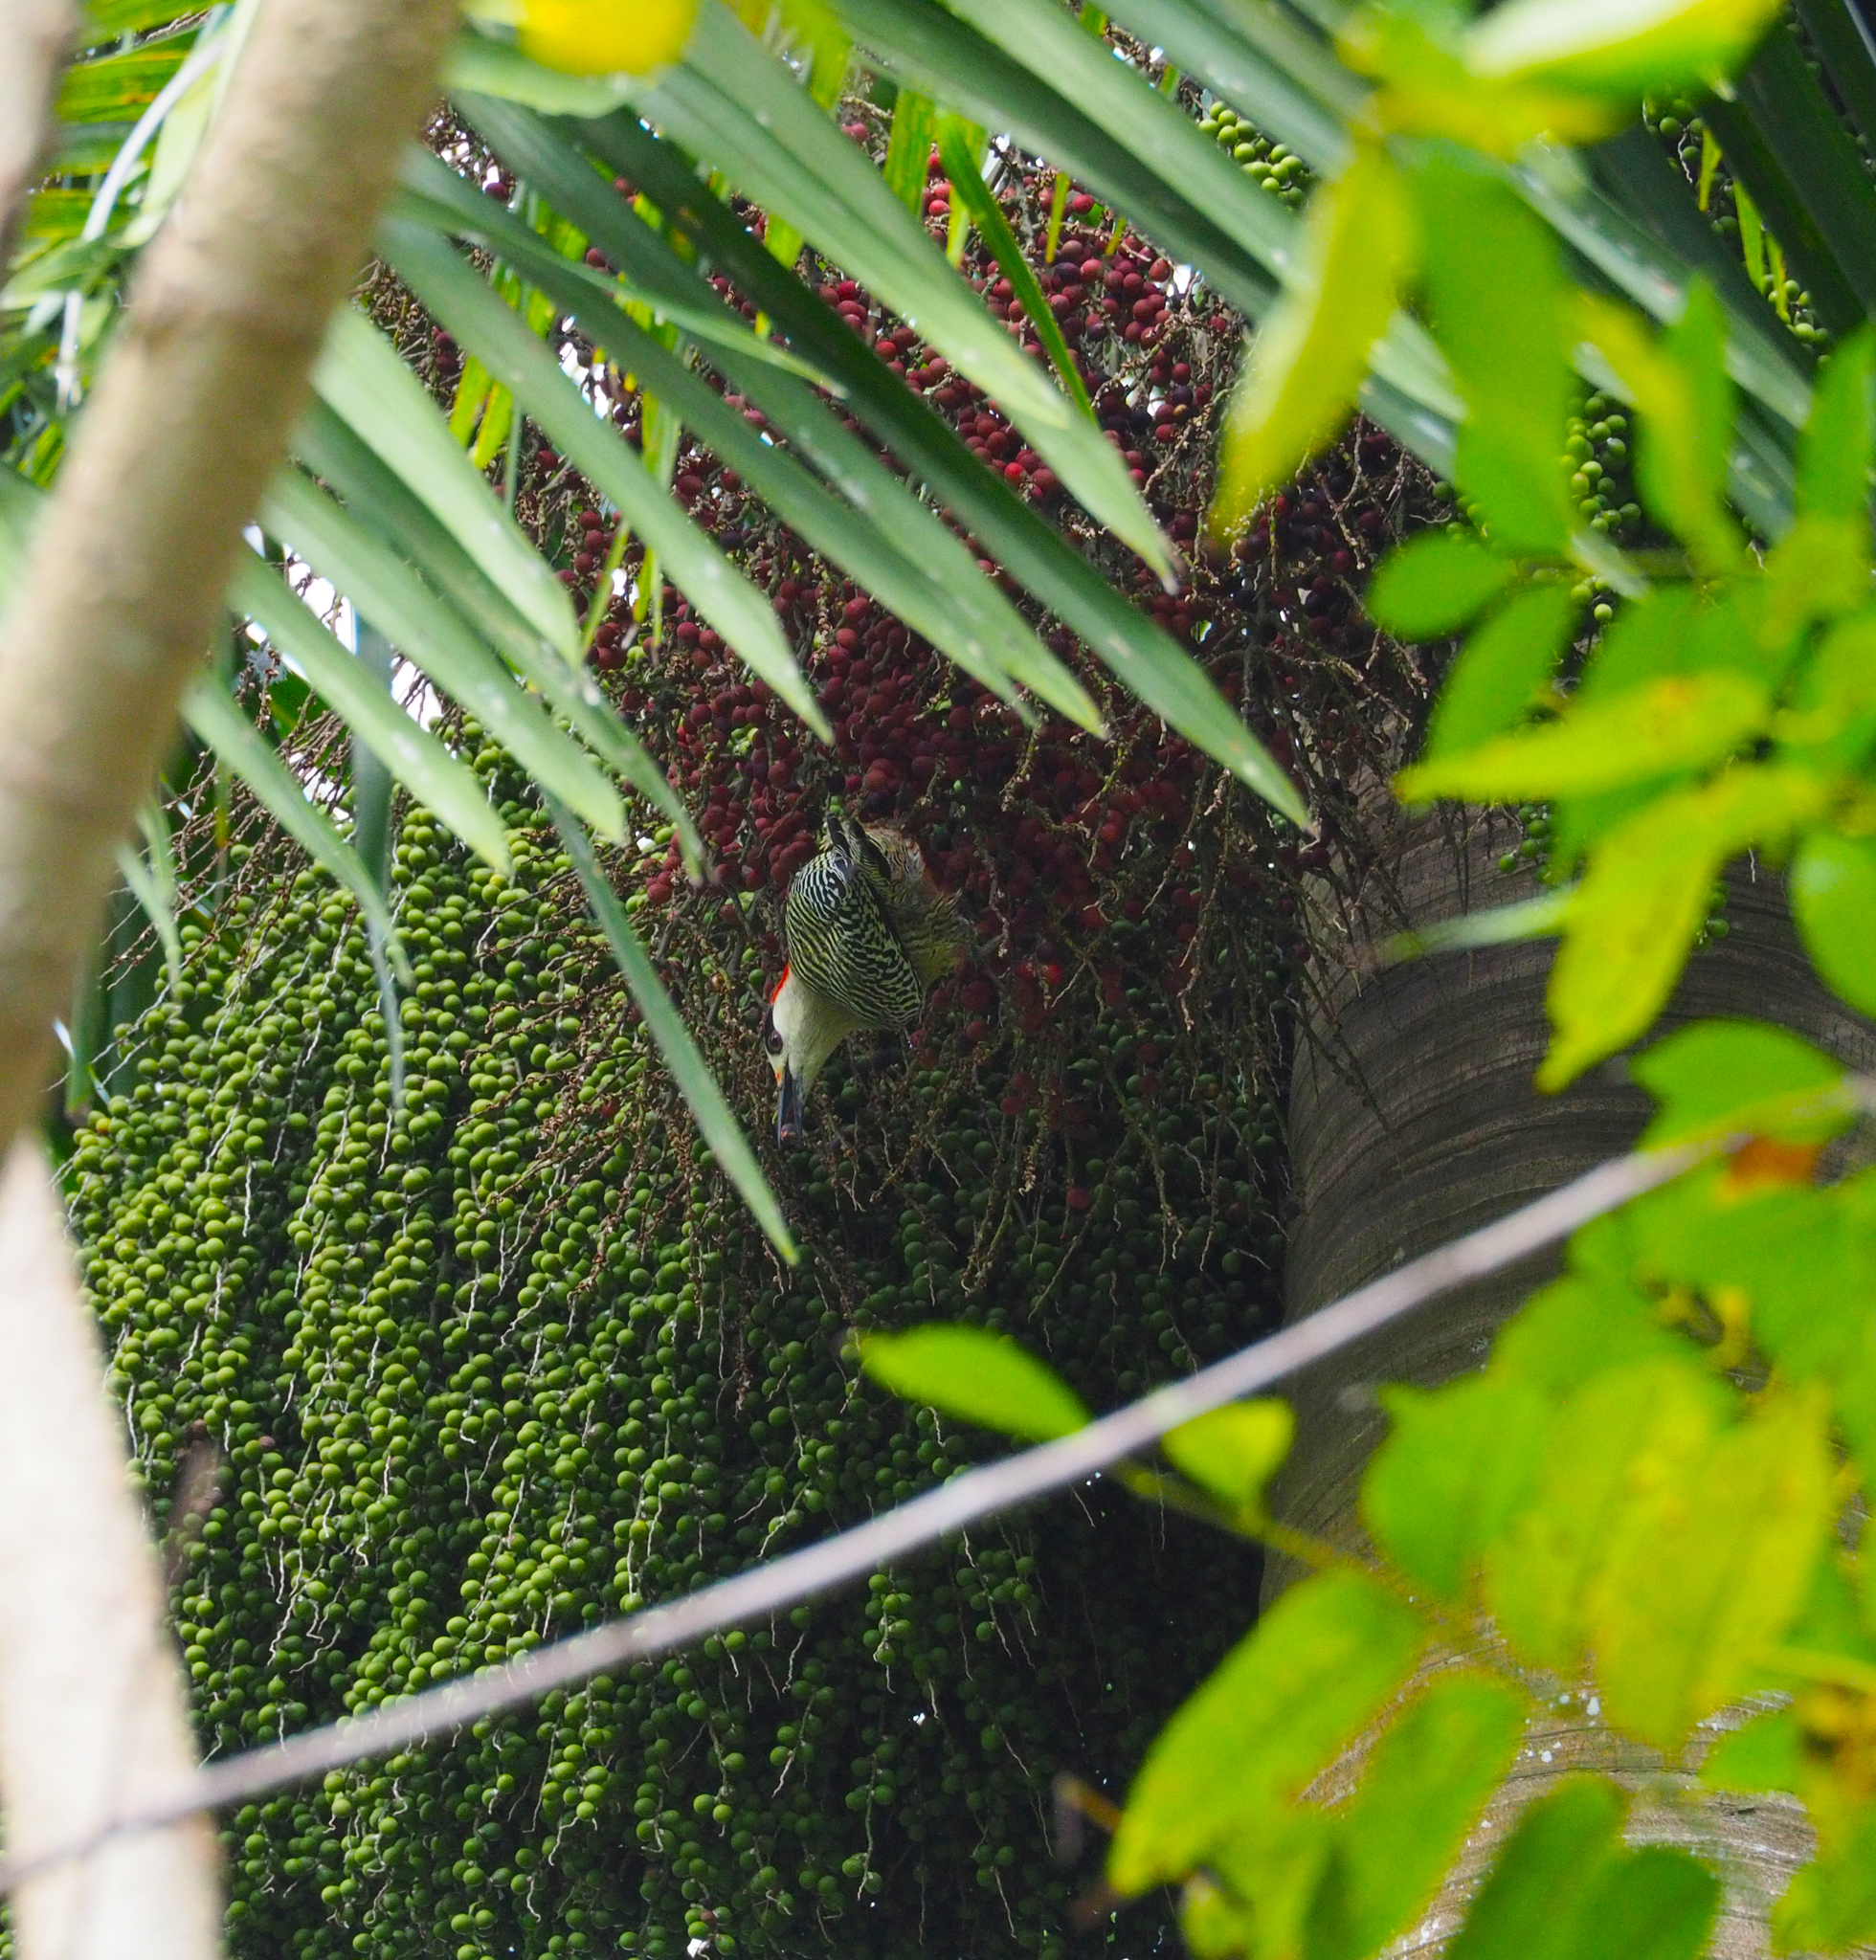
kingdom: Animalia
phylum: Chordata
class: Aves
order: Piciformes
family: Picidae
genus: Melanerpes
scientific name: Melanerpes superciliaris
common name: West indian woodpecker
